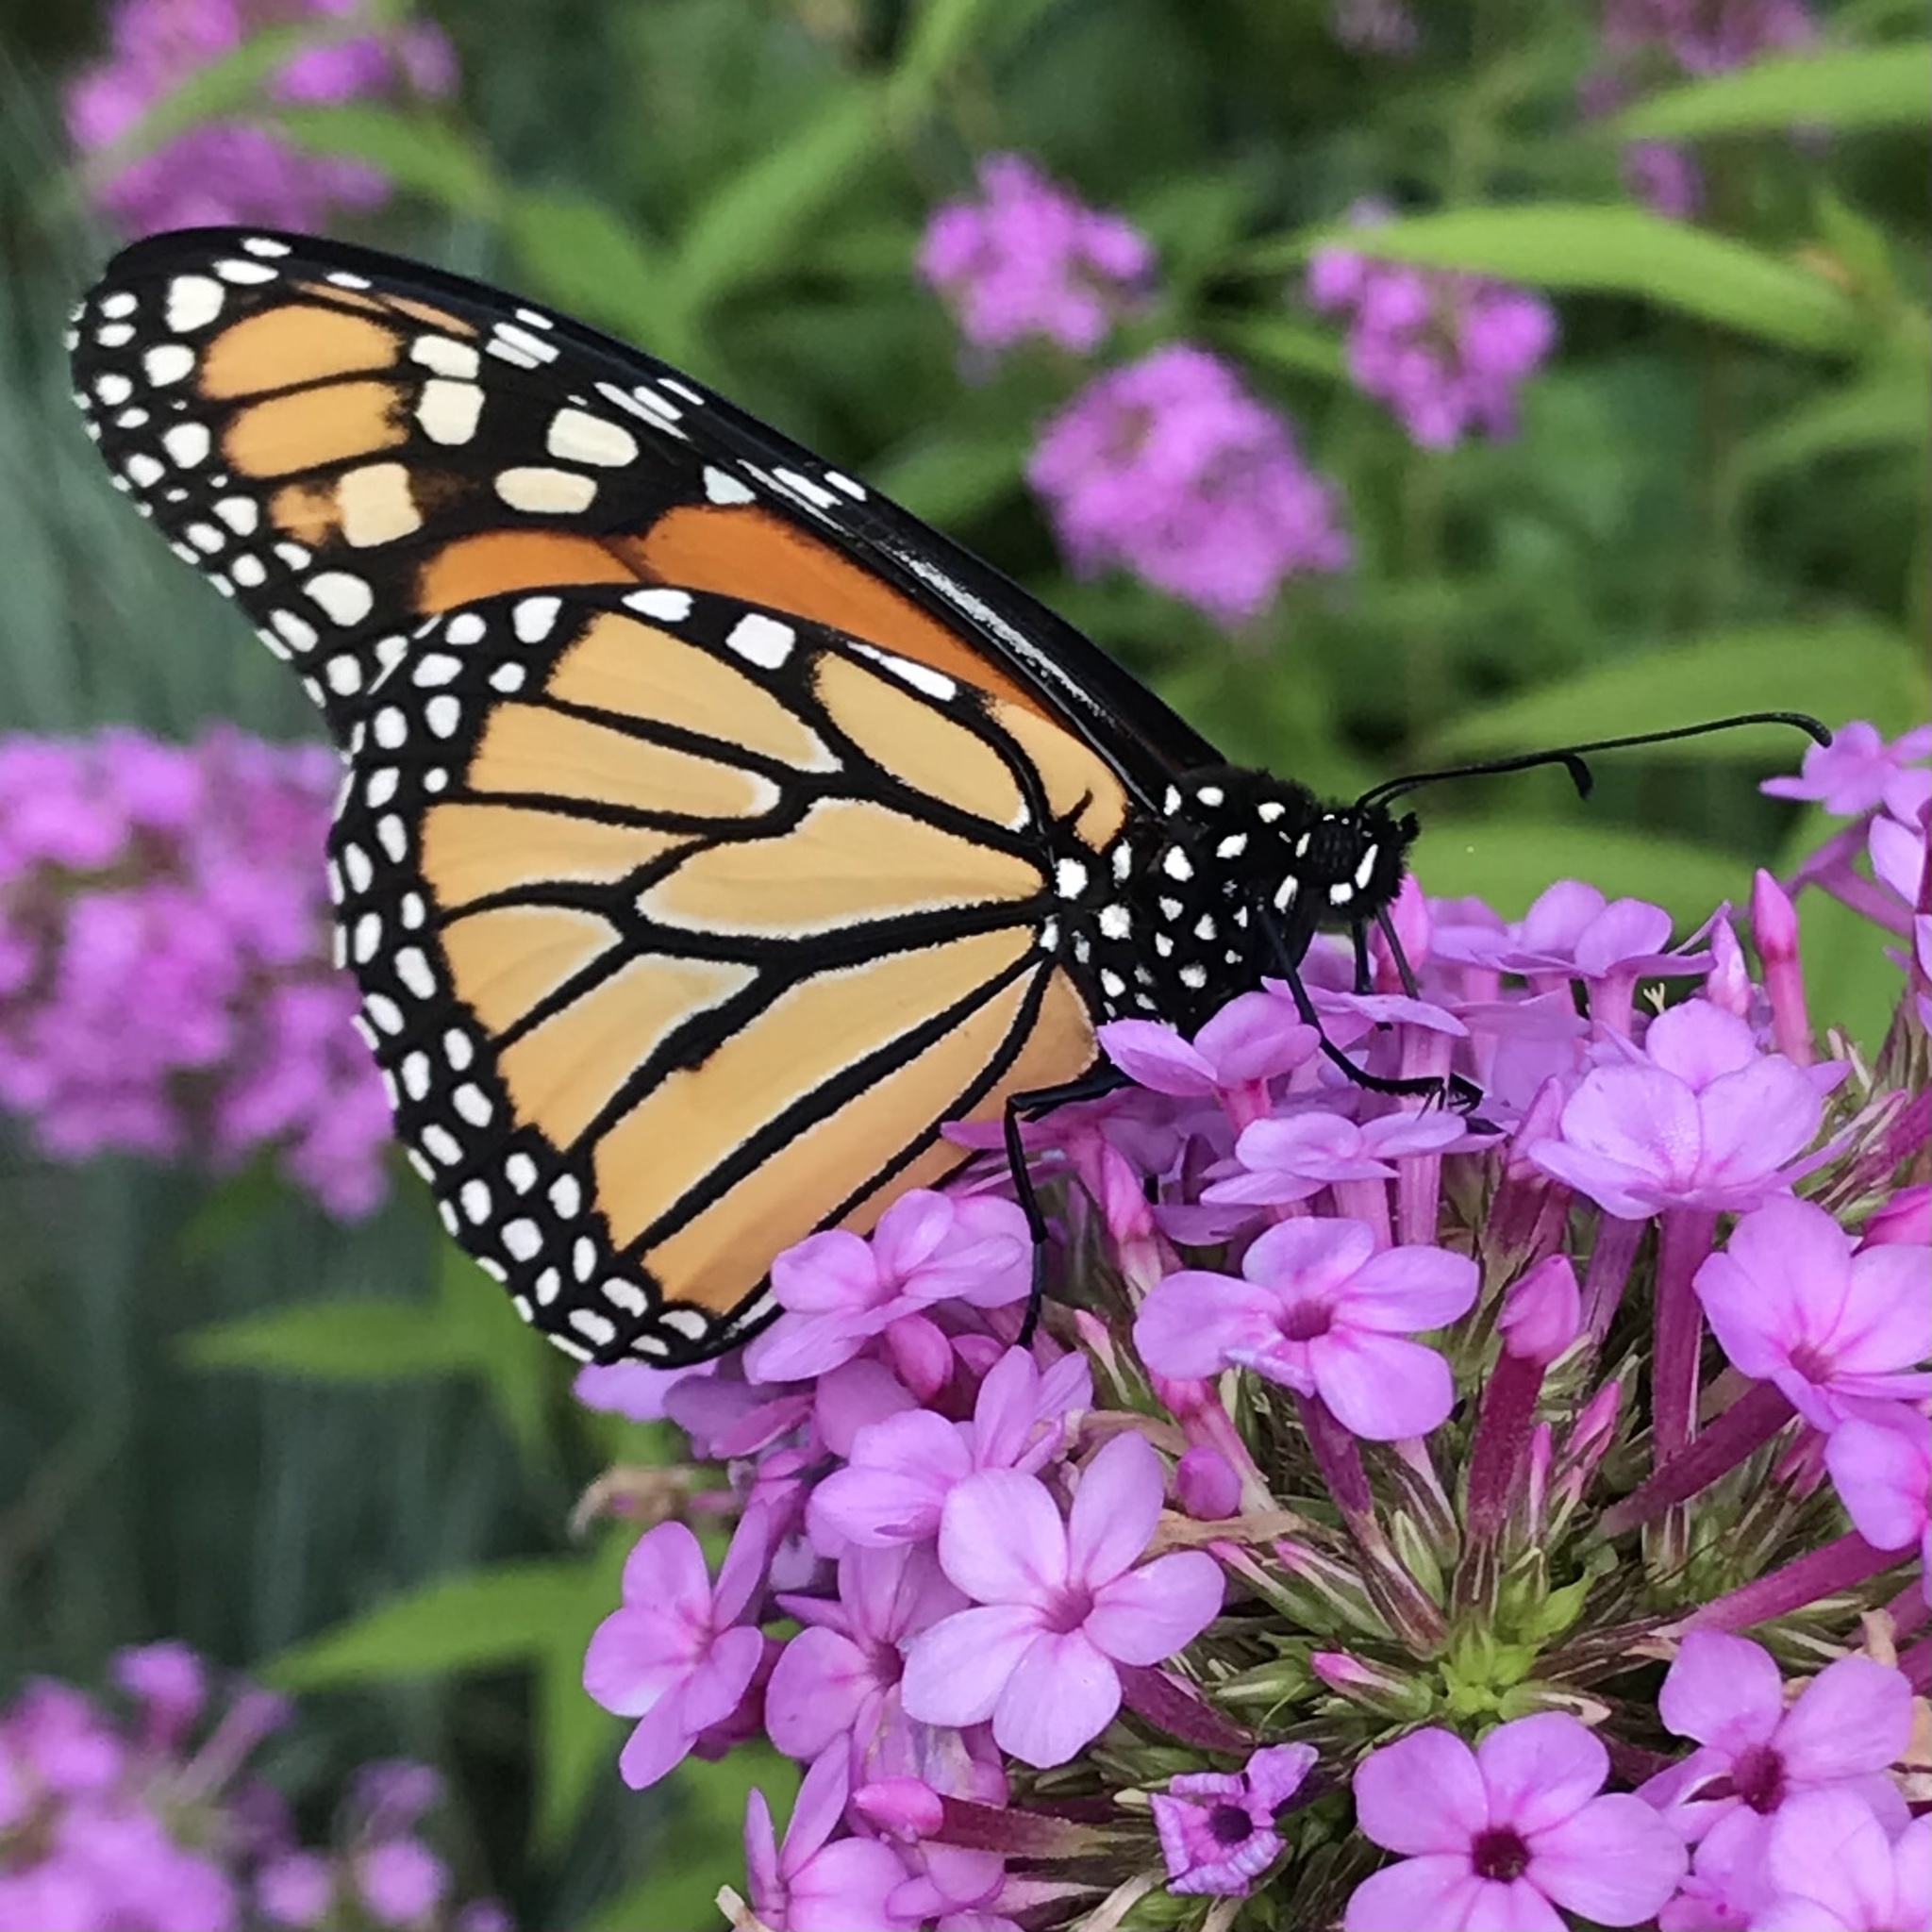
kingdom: Animalia
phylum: Arthropoda
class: Insecta
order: Lepidoptera
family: Nymphalidae
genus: Danaus
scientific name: Danaus plexippus
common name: Monarch
